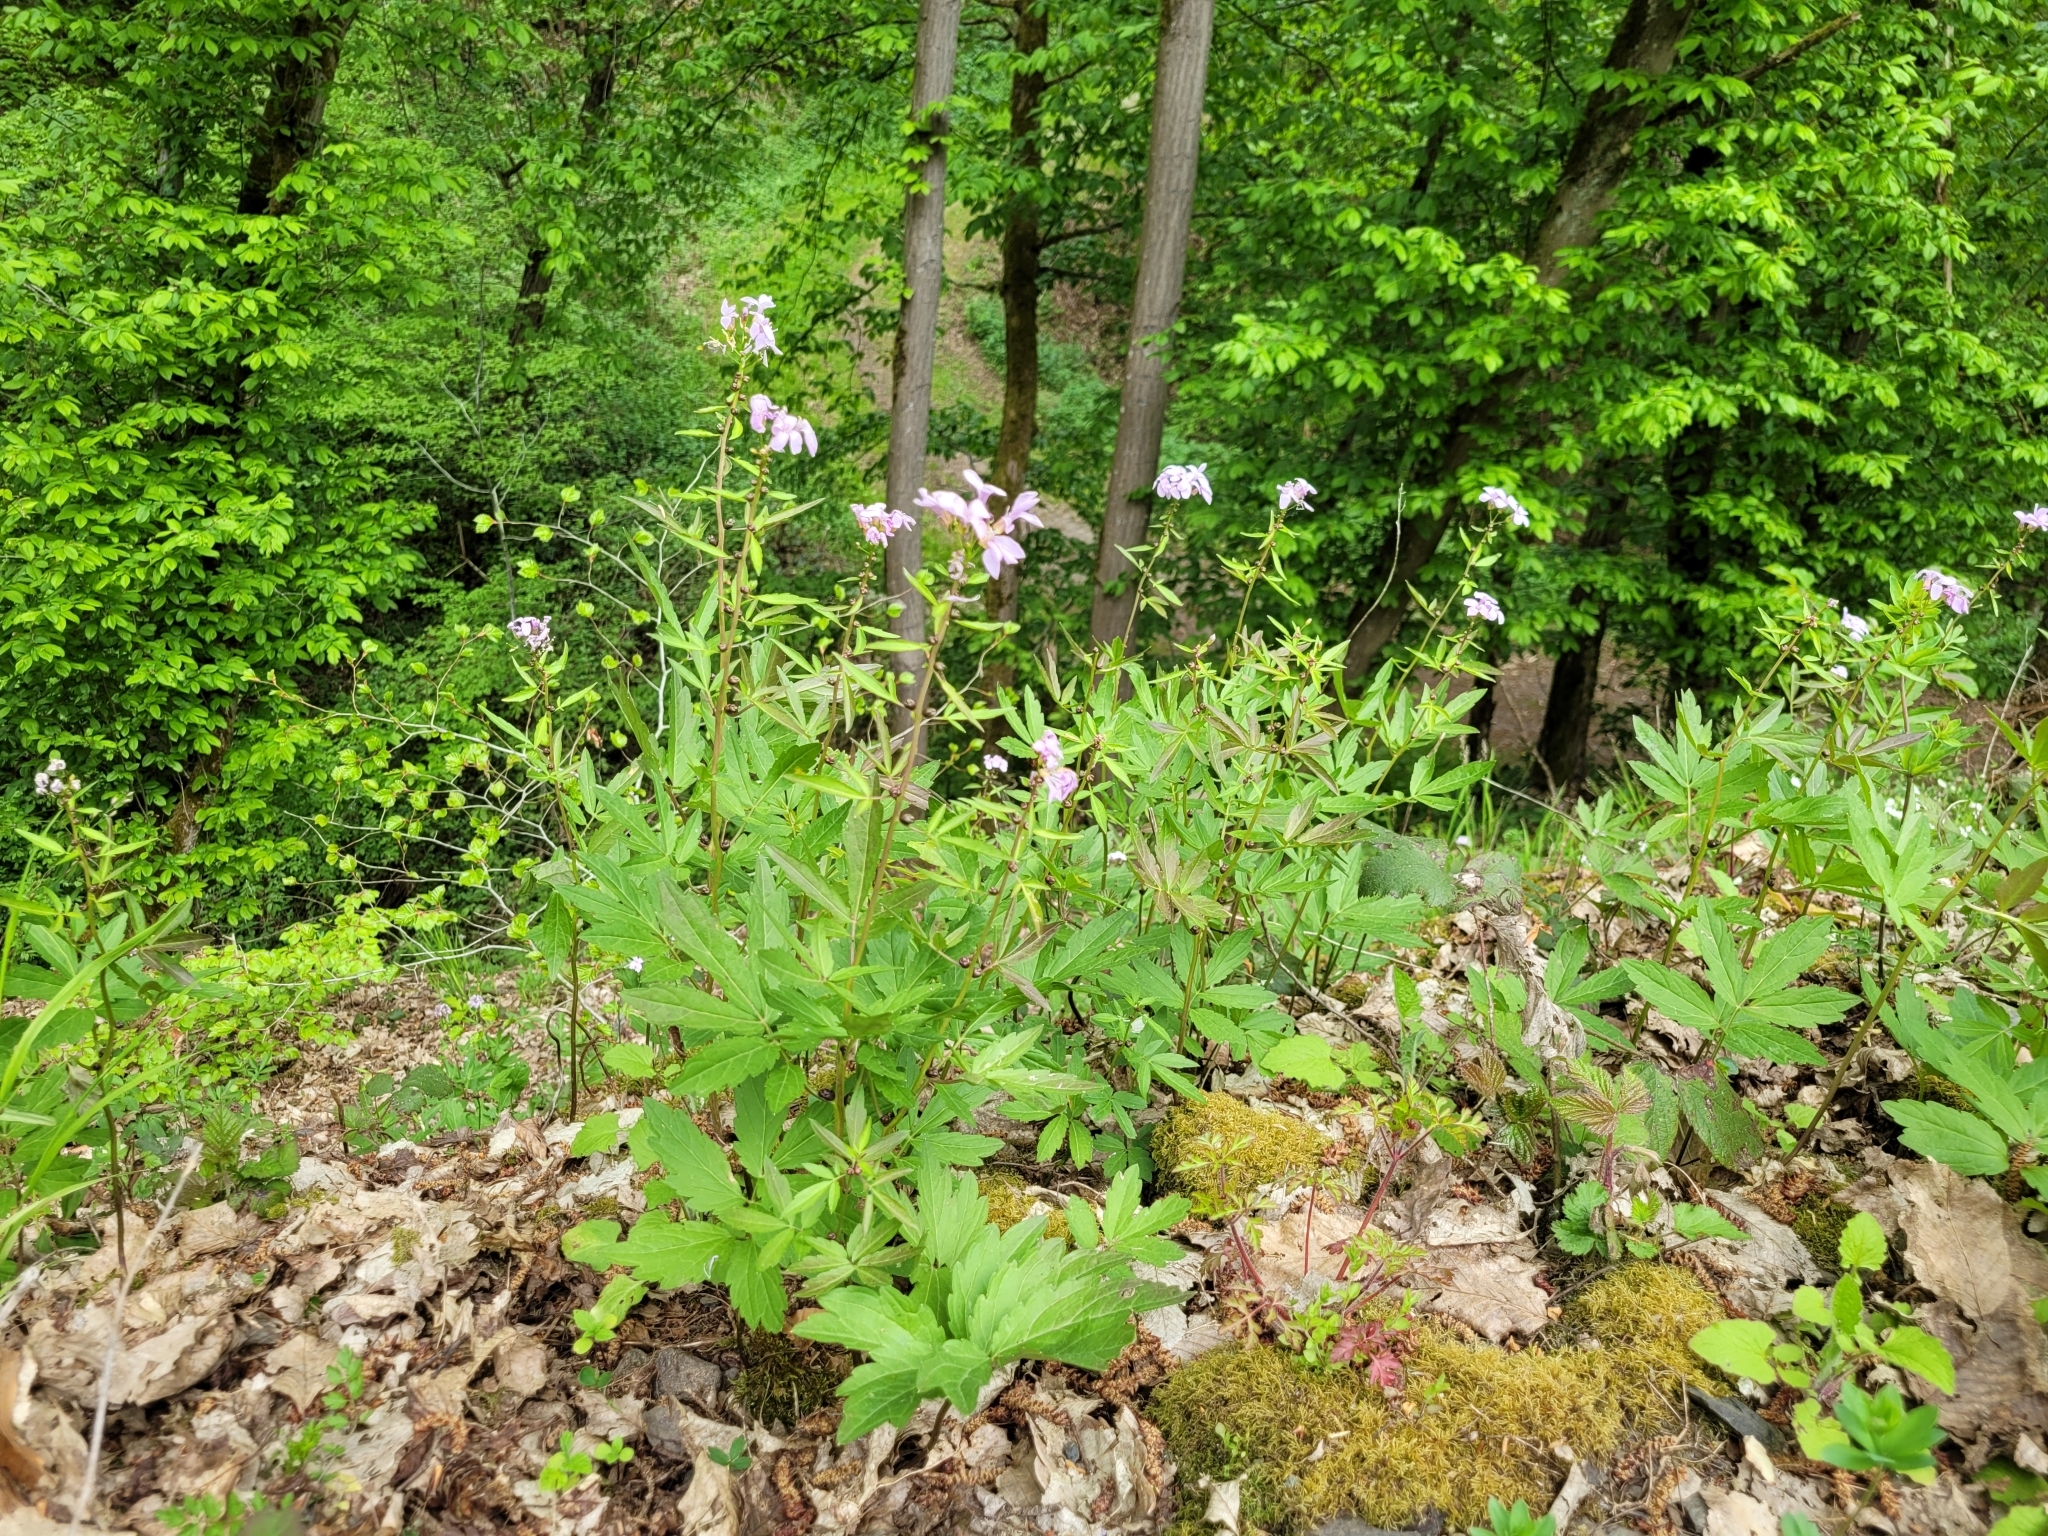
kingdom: Plantae
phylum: Tracheophyta
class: Magnoliopsida
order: Brassicales
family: Brassicaceae
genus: Cardamine
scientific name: Cardamine bulbifera
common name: Coralroot bittercress
